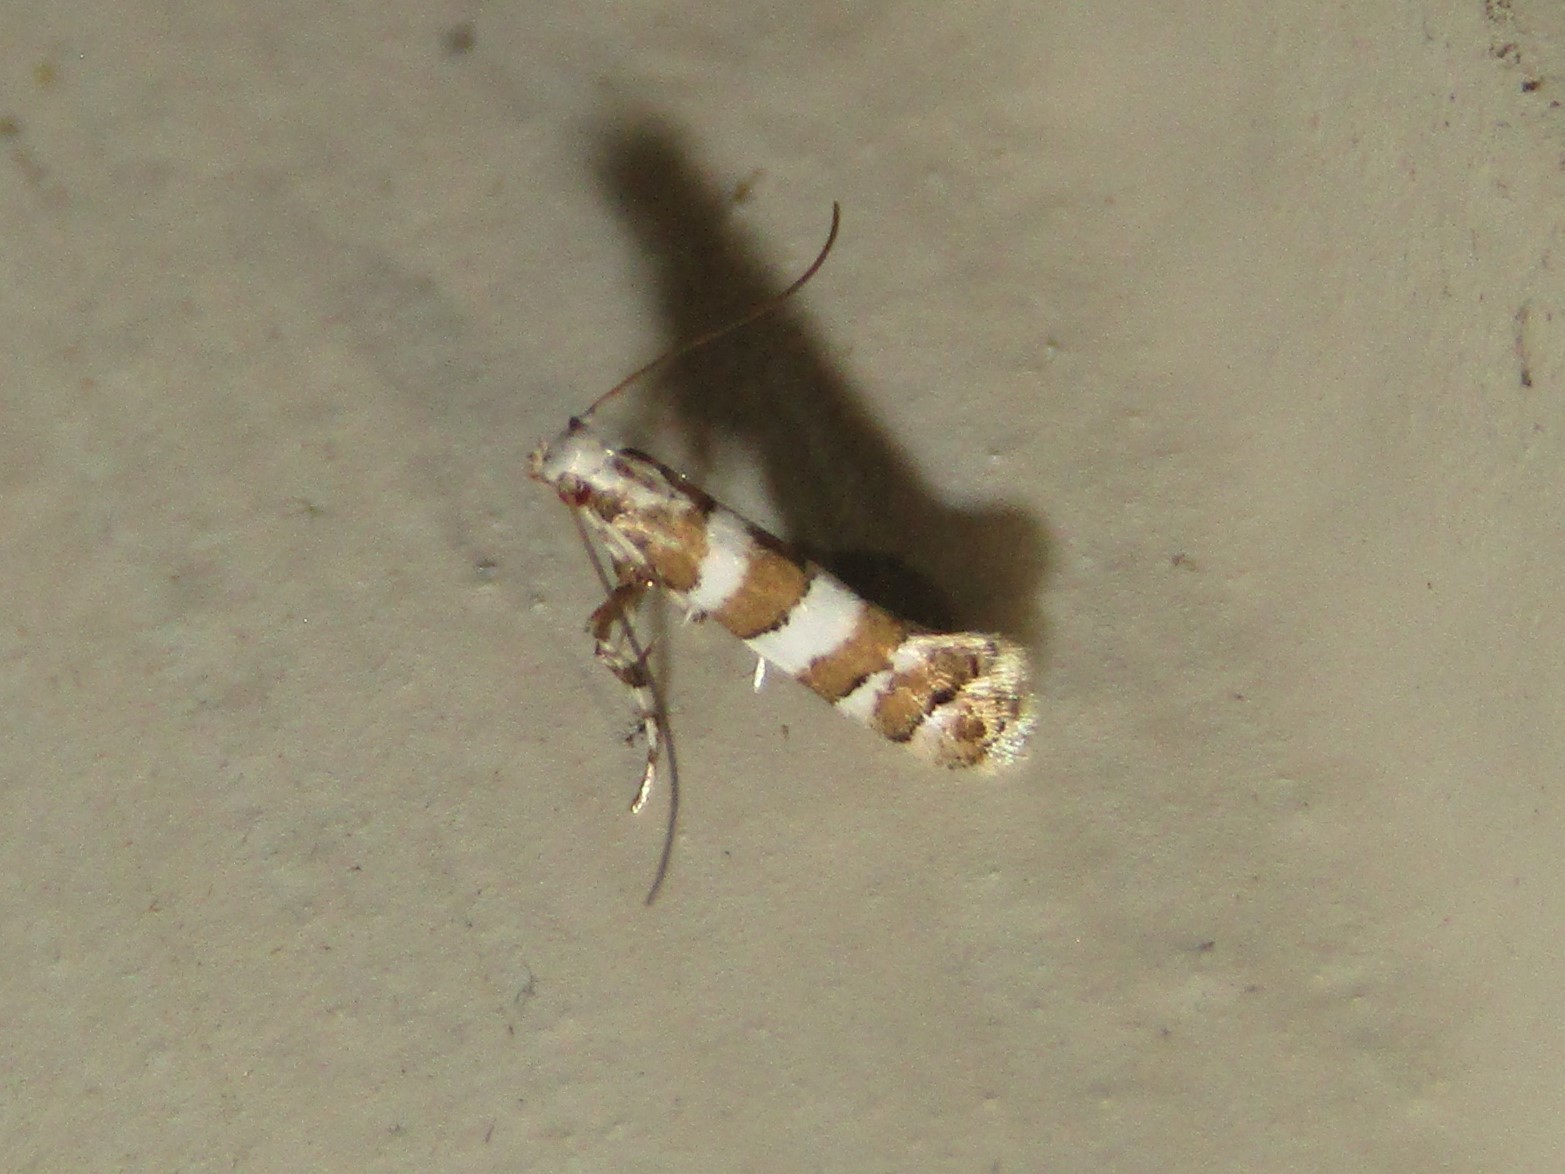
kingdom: Animalia
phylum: Arthropoda
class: Insecta
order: Lepidoptera
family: Gracillariidae
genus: Marmara
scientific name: Marmara fasciella
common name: White pine barkminer moth
